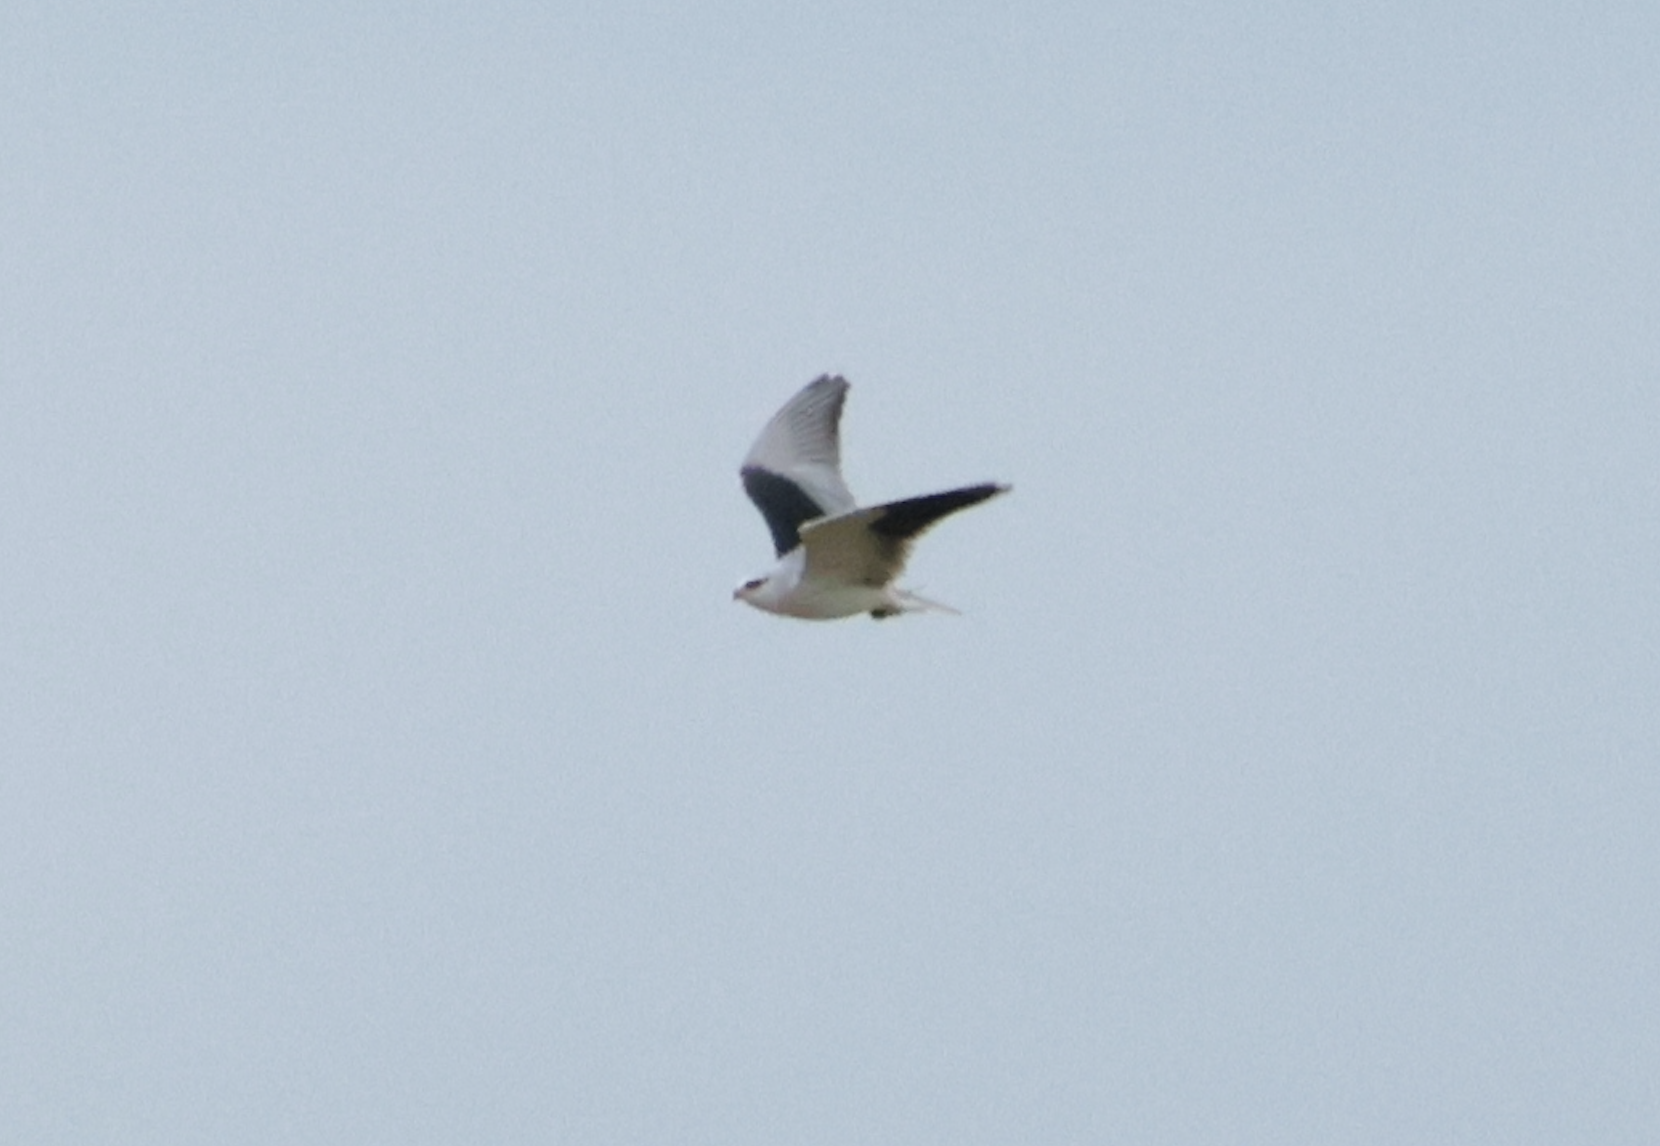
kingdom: Animalia
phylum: Chordata
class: Aves
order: Accipitriformes
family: Accipitridae
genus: Elanus
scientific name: Elanus caeruleus
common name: Black-winged kite
